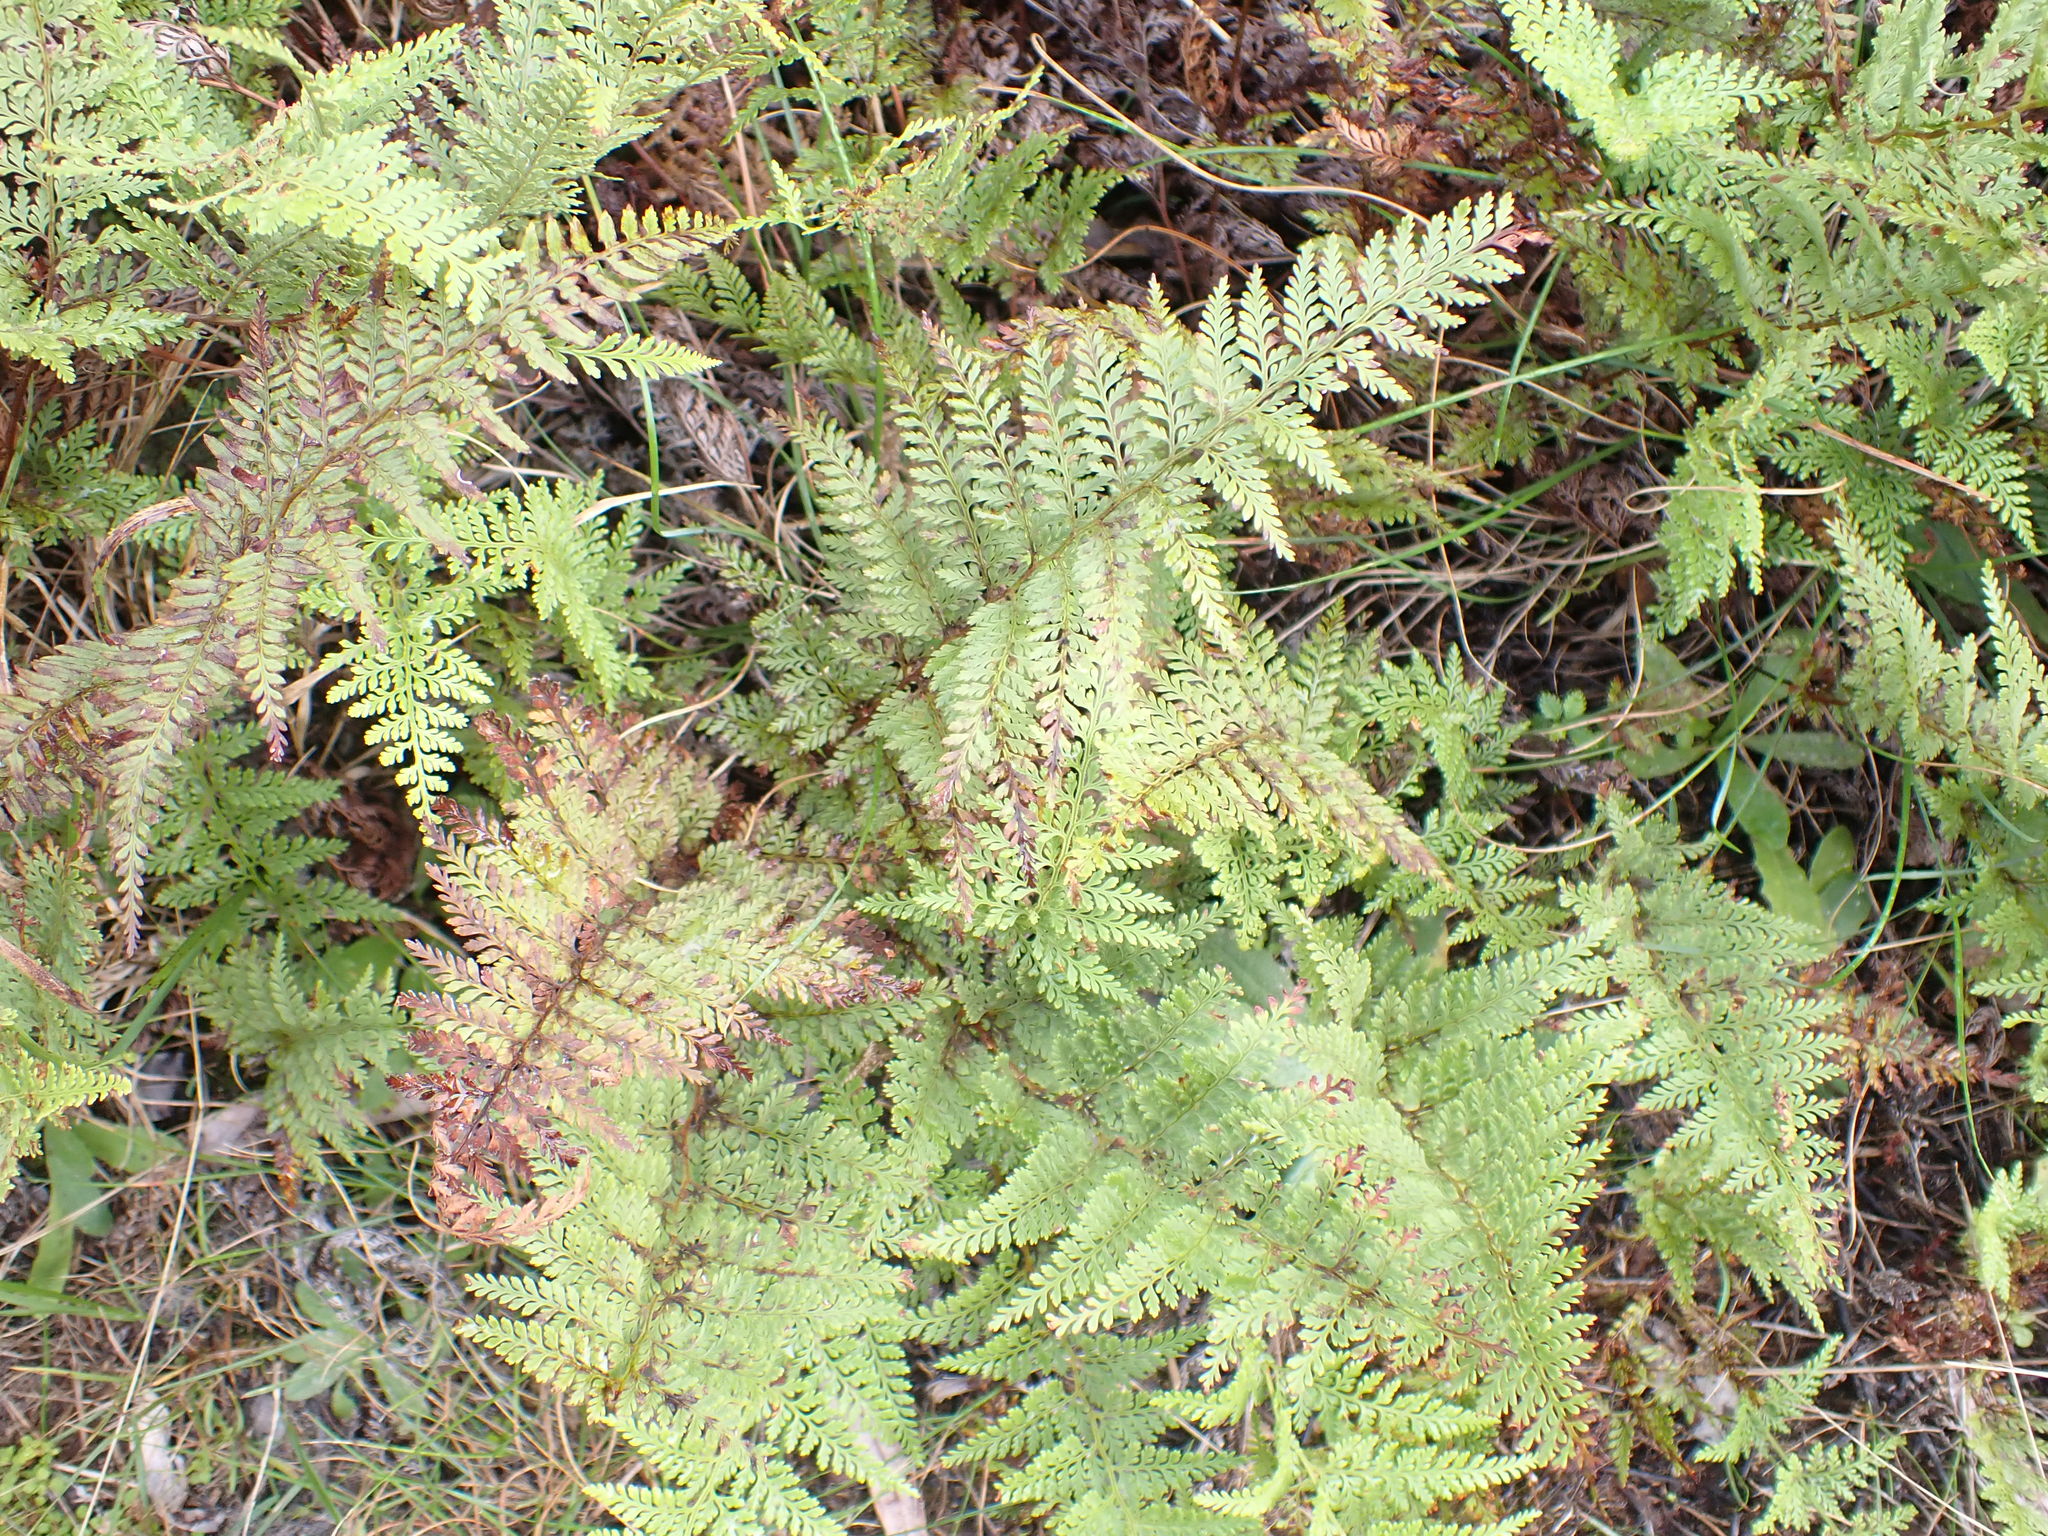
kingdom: Plantae
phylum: Tracheophyta
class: Polypodiopsida
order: Polypodiales
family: Dennstaedtiaceae
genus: Paesia
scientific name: Paesia scaberula
